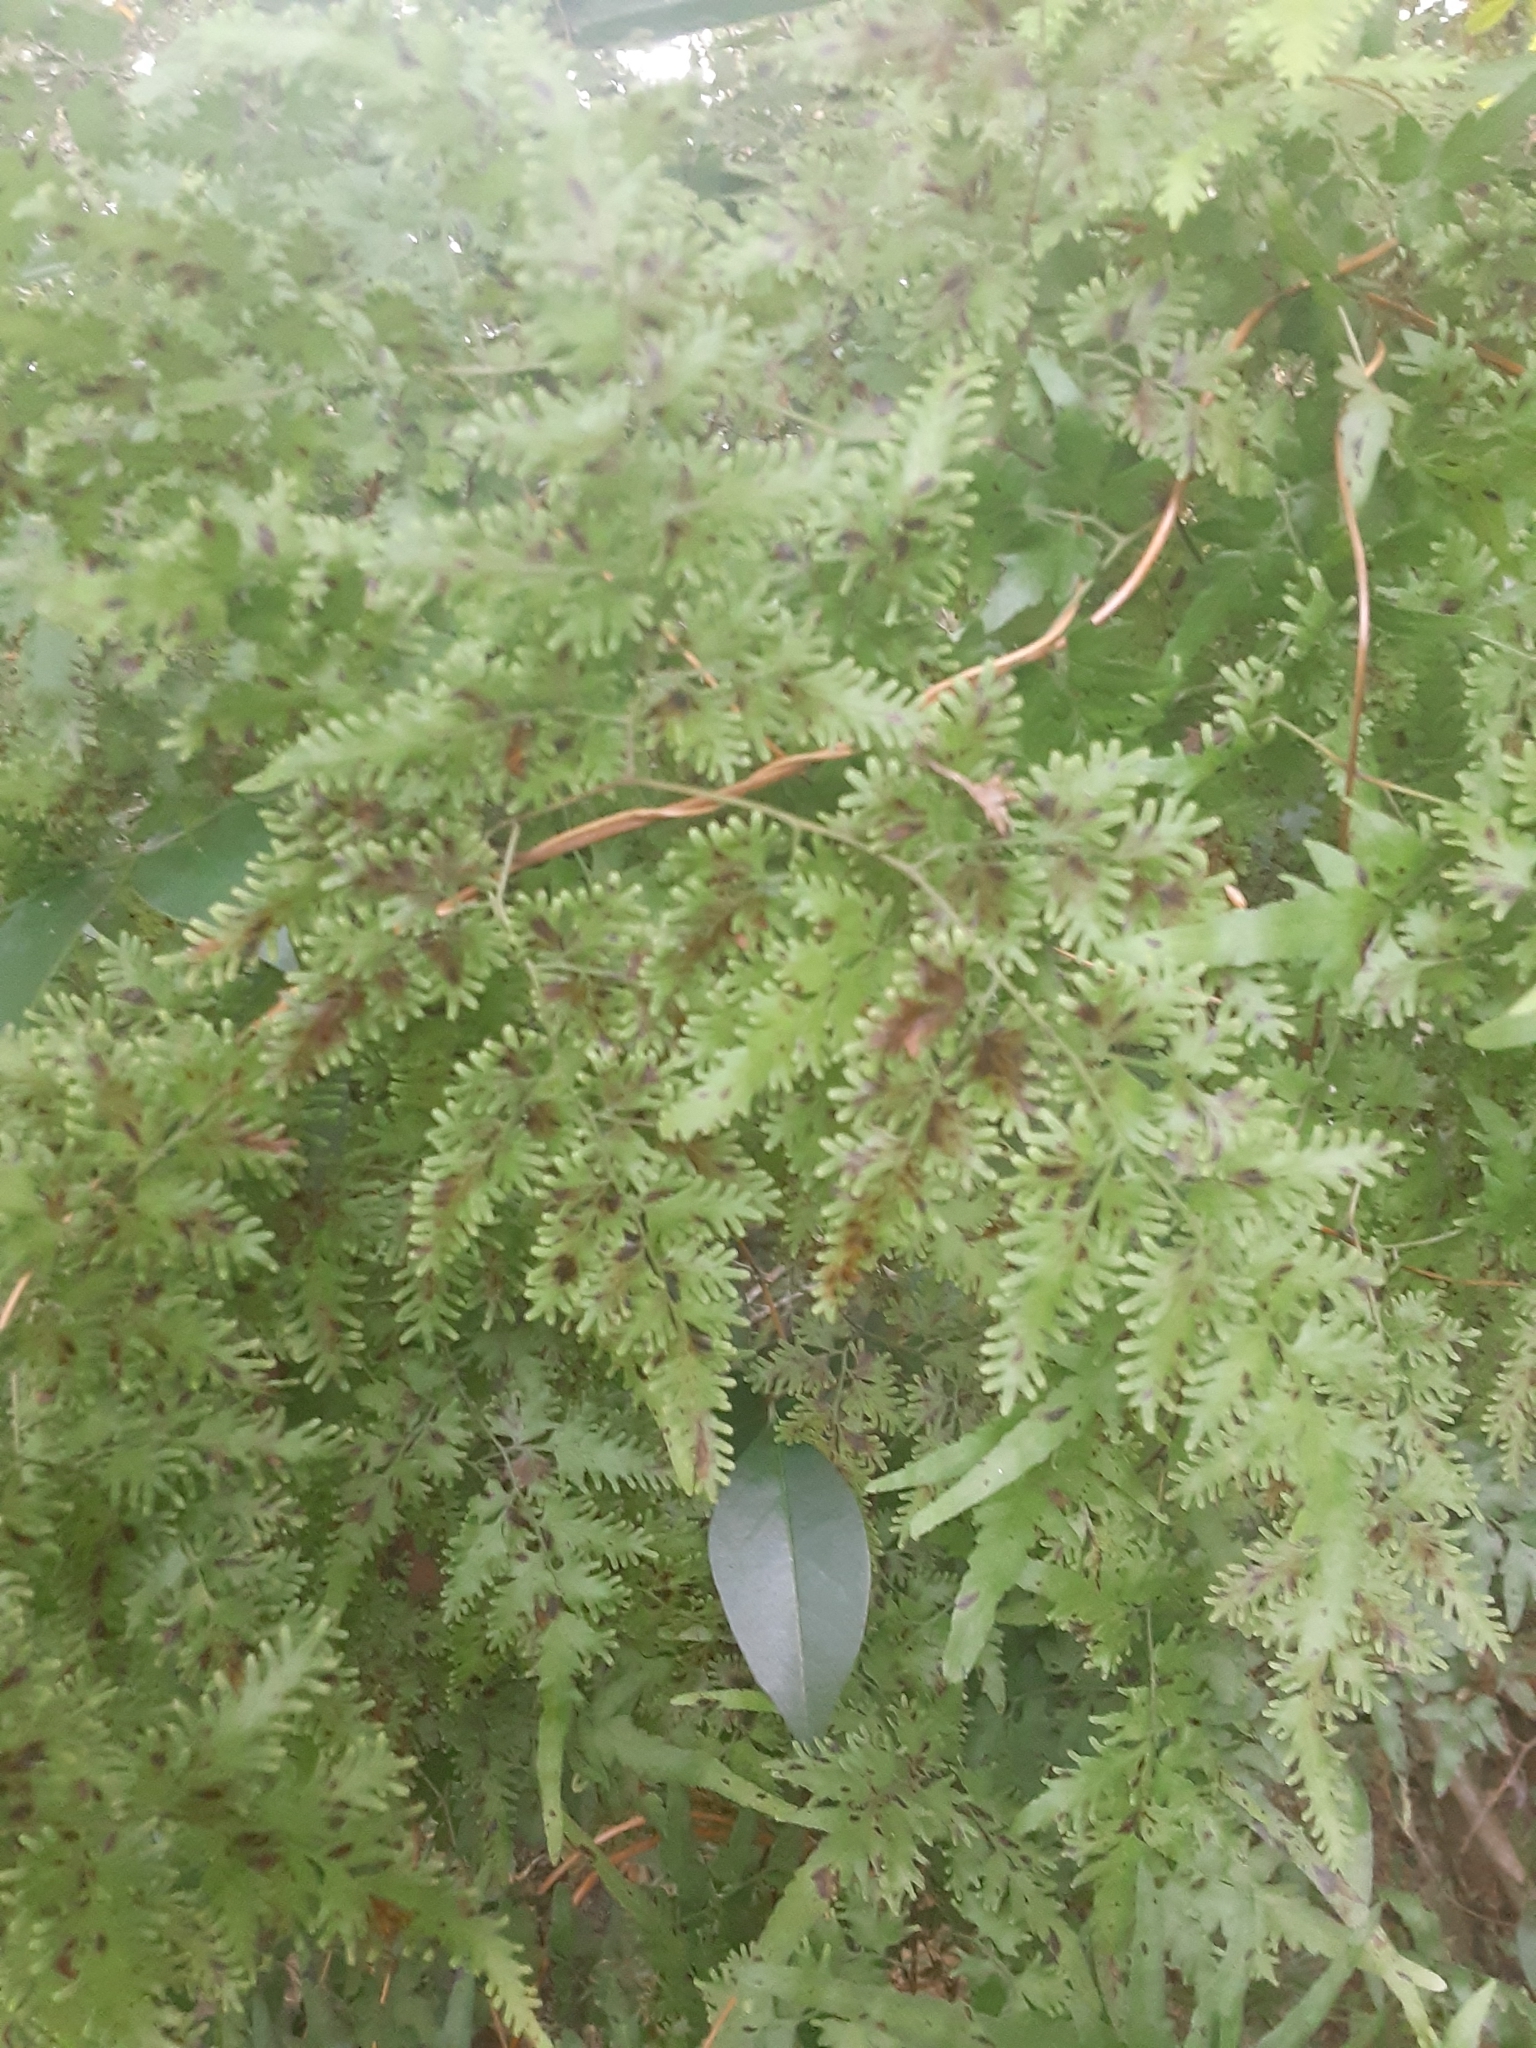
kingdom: Plantae
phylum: Tracheophyta
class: Polypodiopsida
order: Schizaeales
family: Lygodiaceae
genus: Lygodium
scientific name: Lygodium japonicum
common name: Japanese climbing fern
